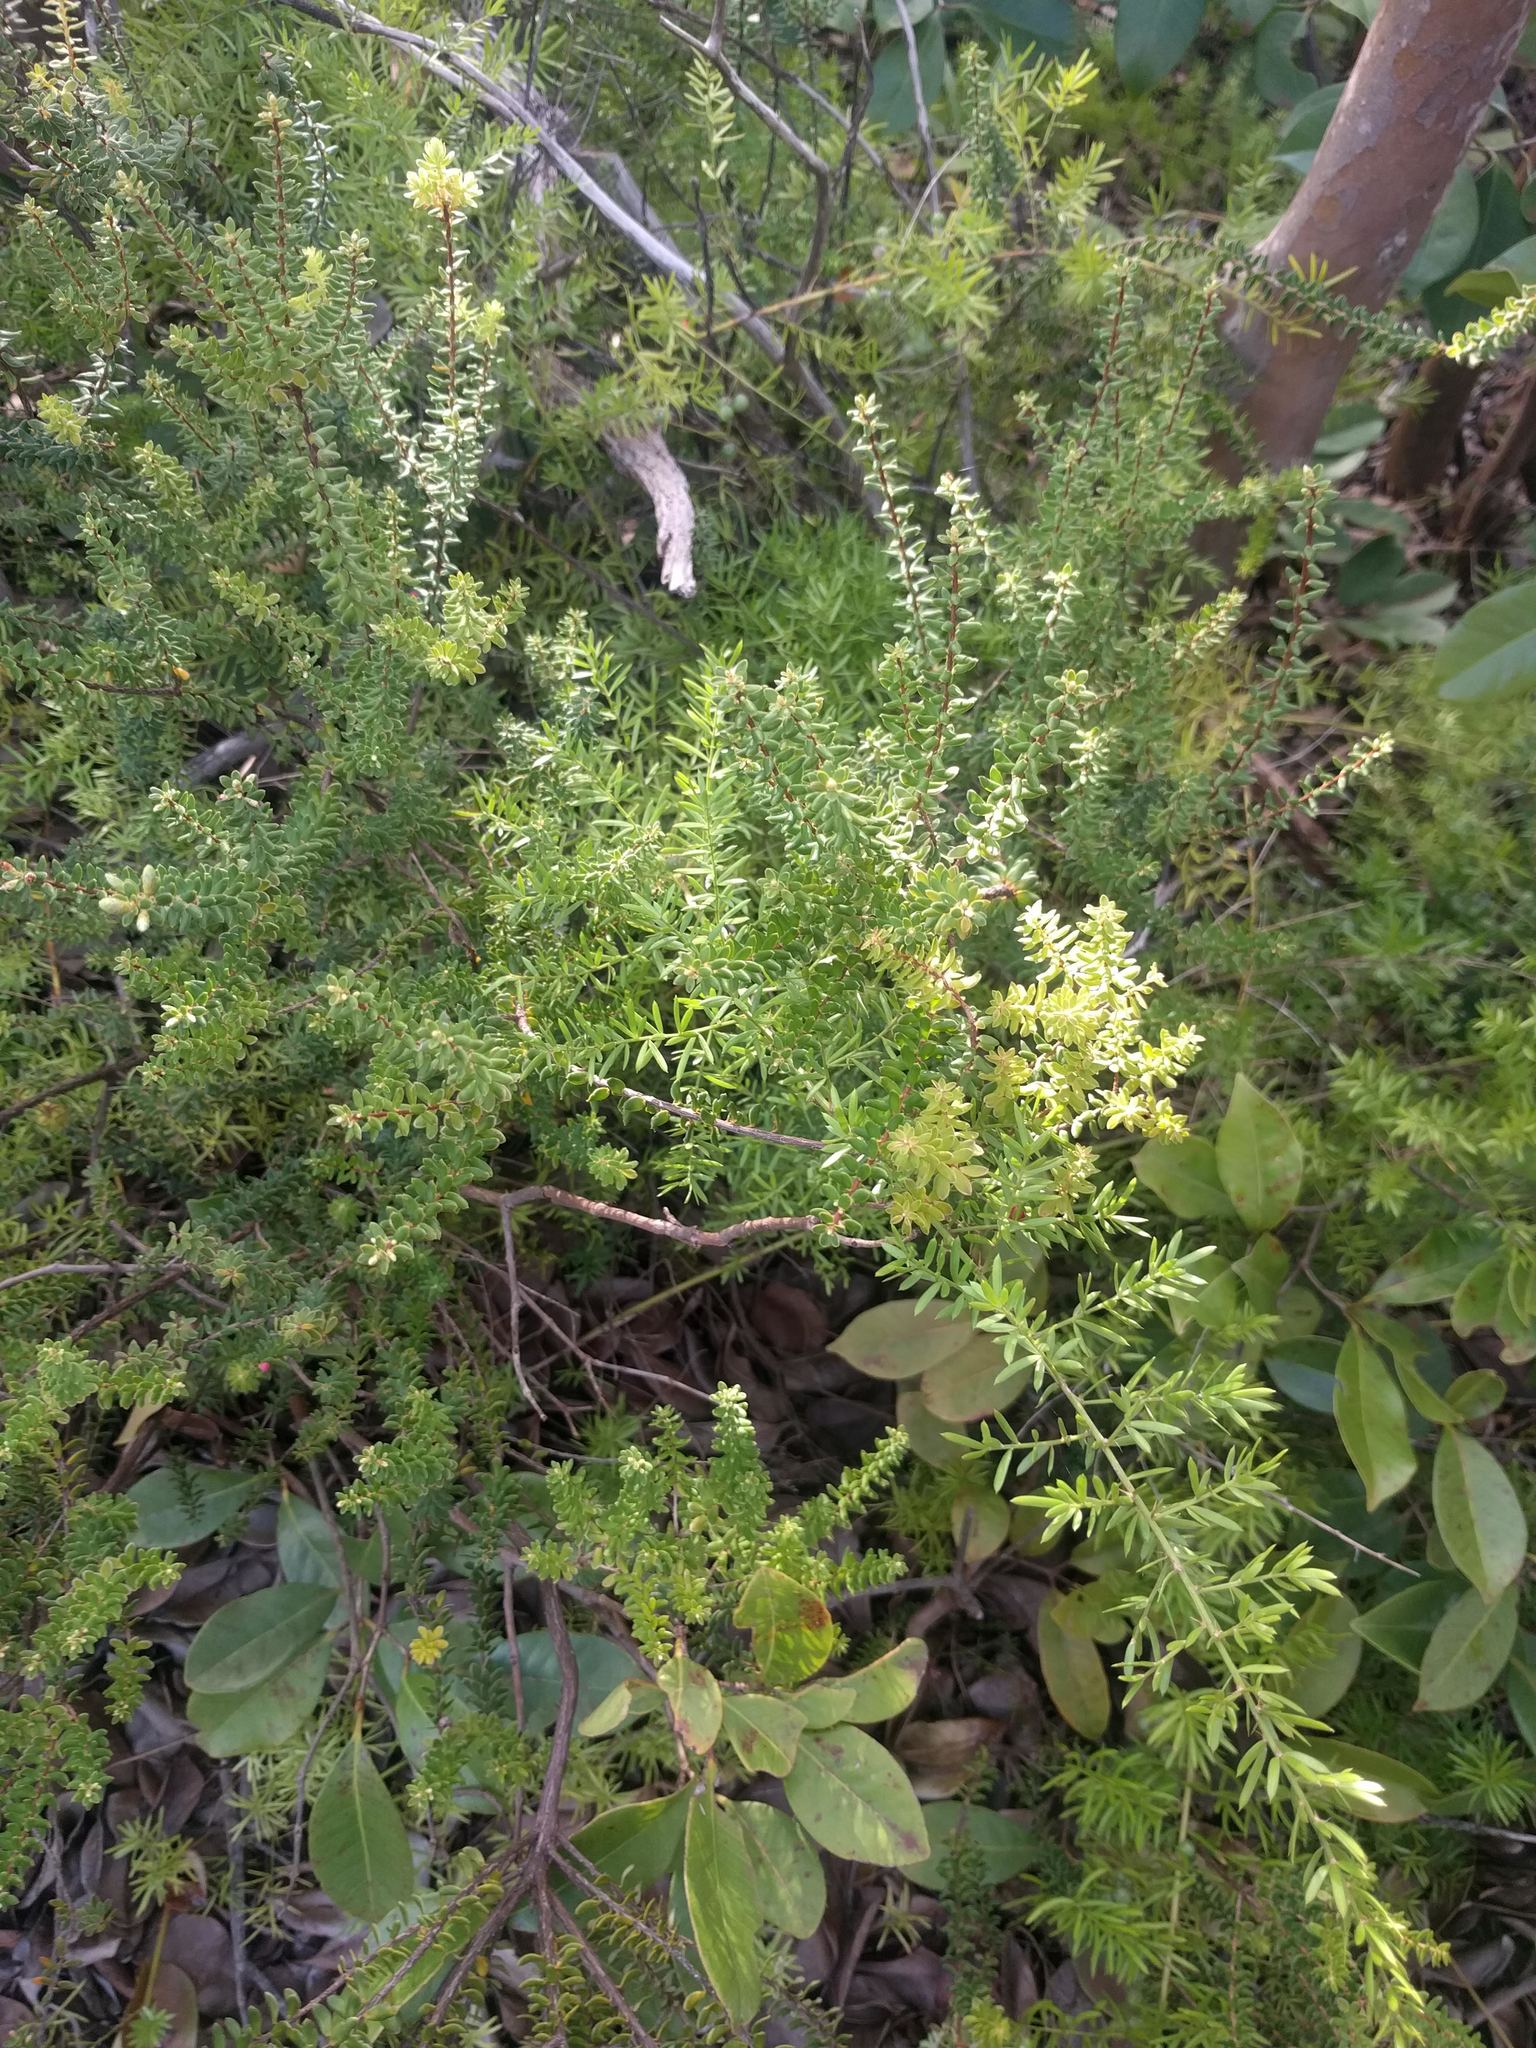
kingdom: Plantae
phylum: Tracheophyta
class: Magnoliopsida
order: Ericales
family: Ericaceae
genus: Leptecophylla
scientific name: Leptecophylla tameiameiae
